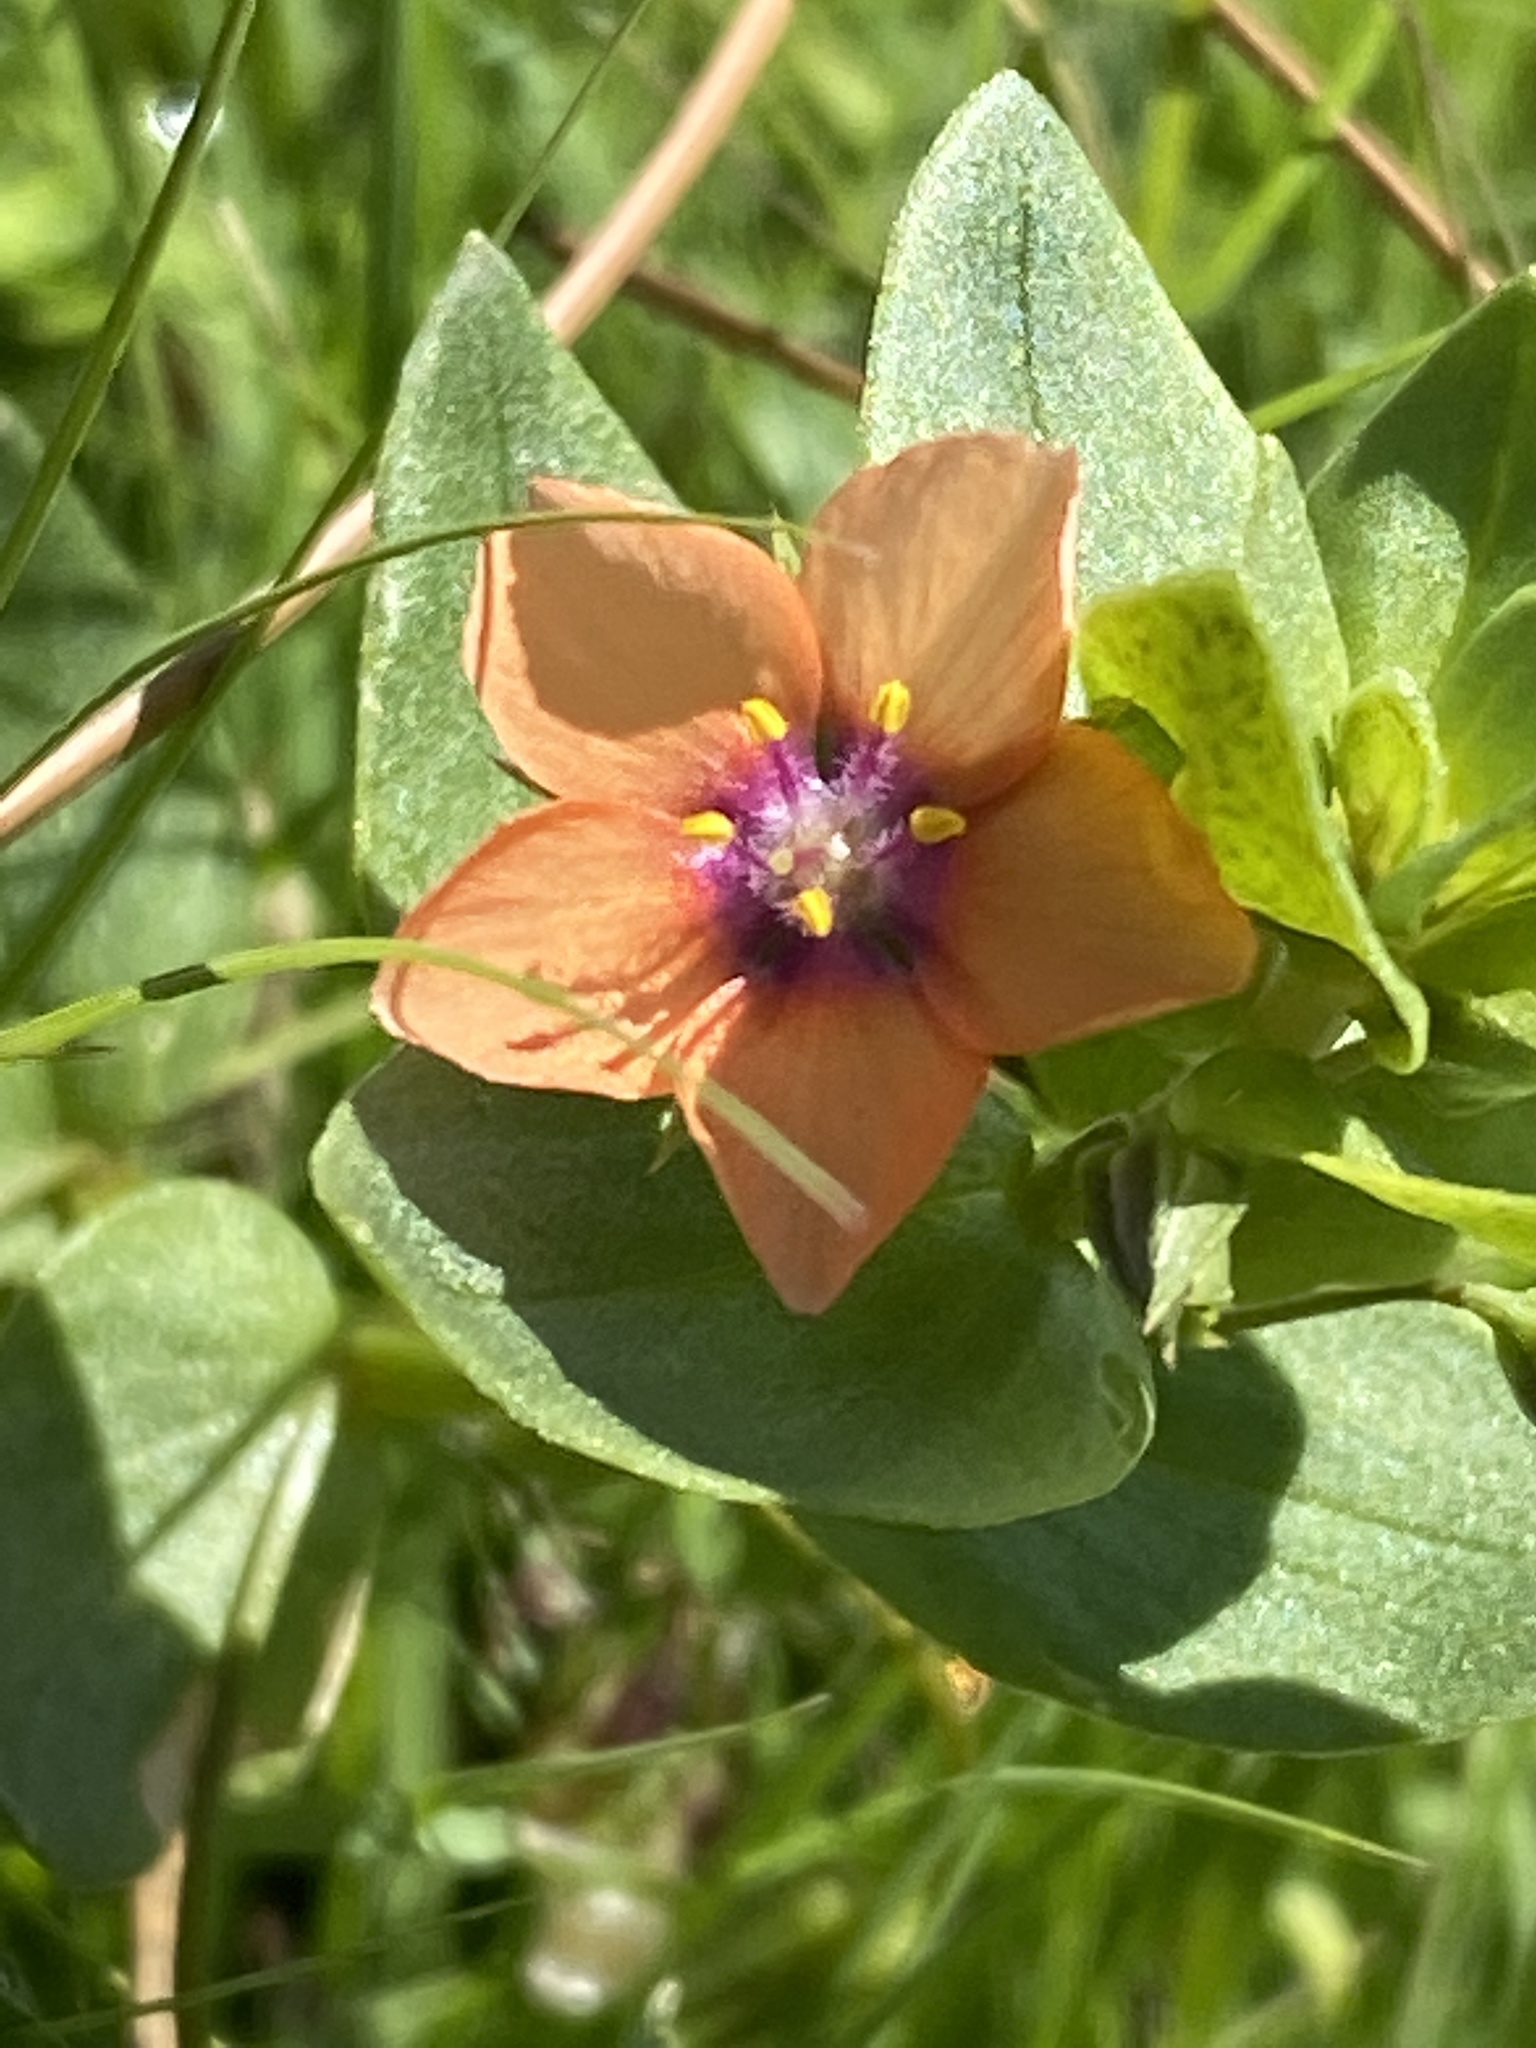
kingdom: Plantae
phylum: Tracheophyta
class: Magnoliopsida
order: Ericales
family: Primulaceae
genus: Lysimachia
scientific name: Lysimachia arvensis
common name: Scarlet pimpernel
